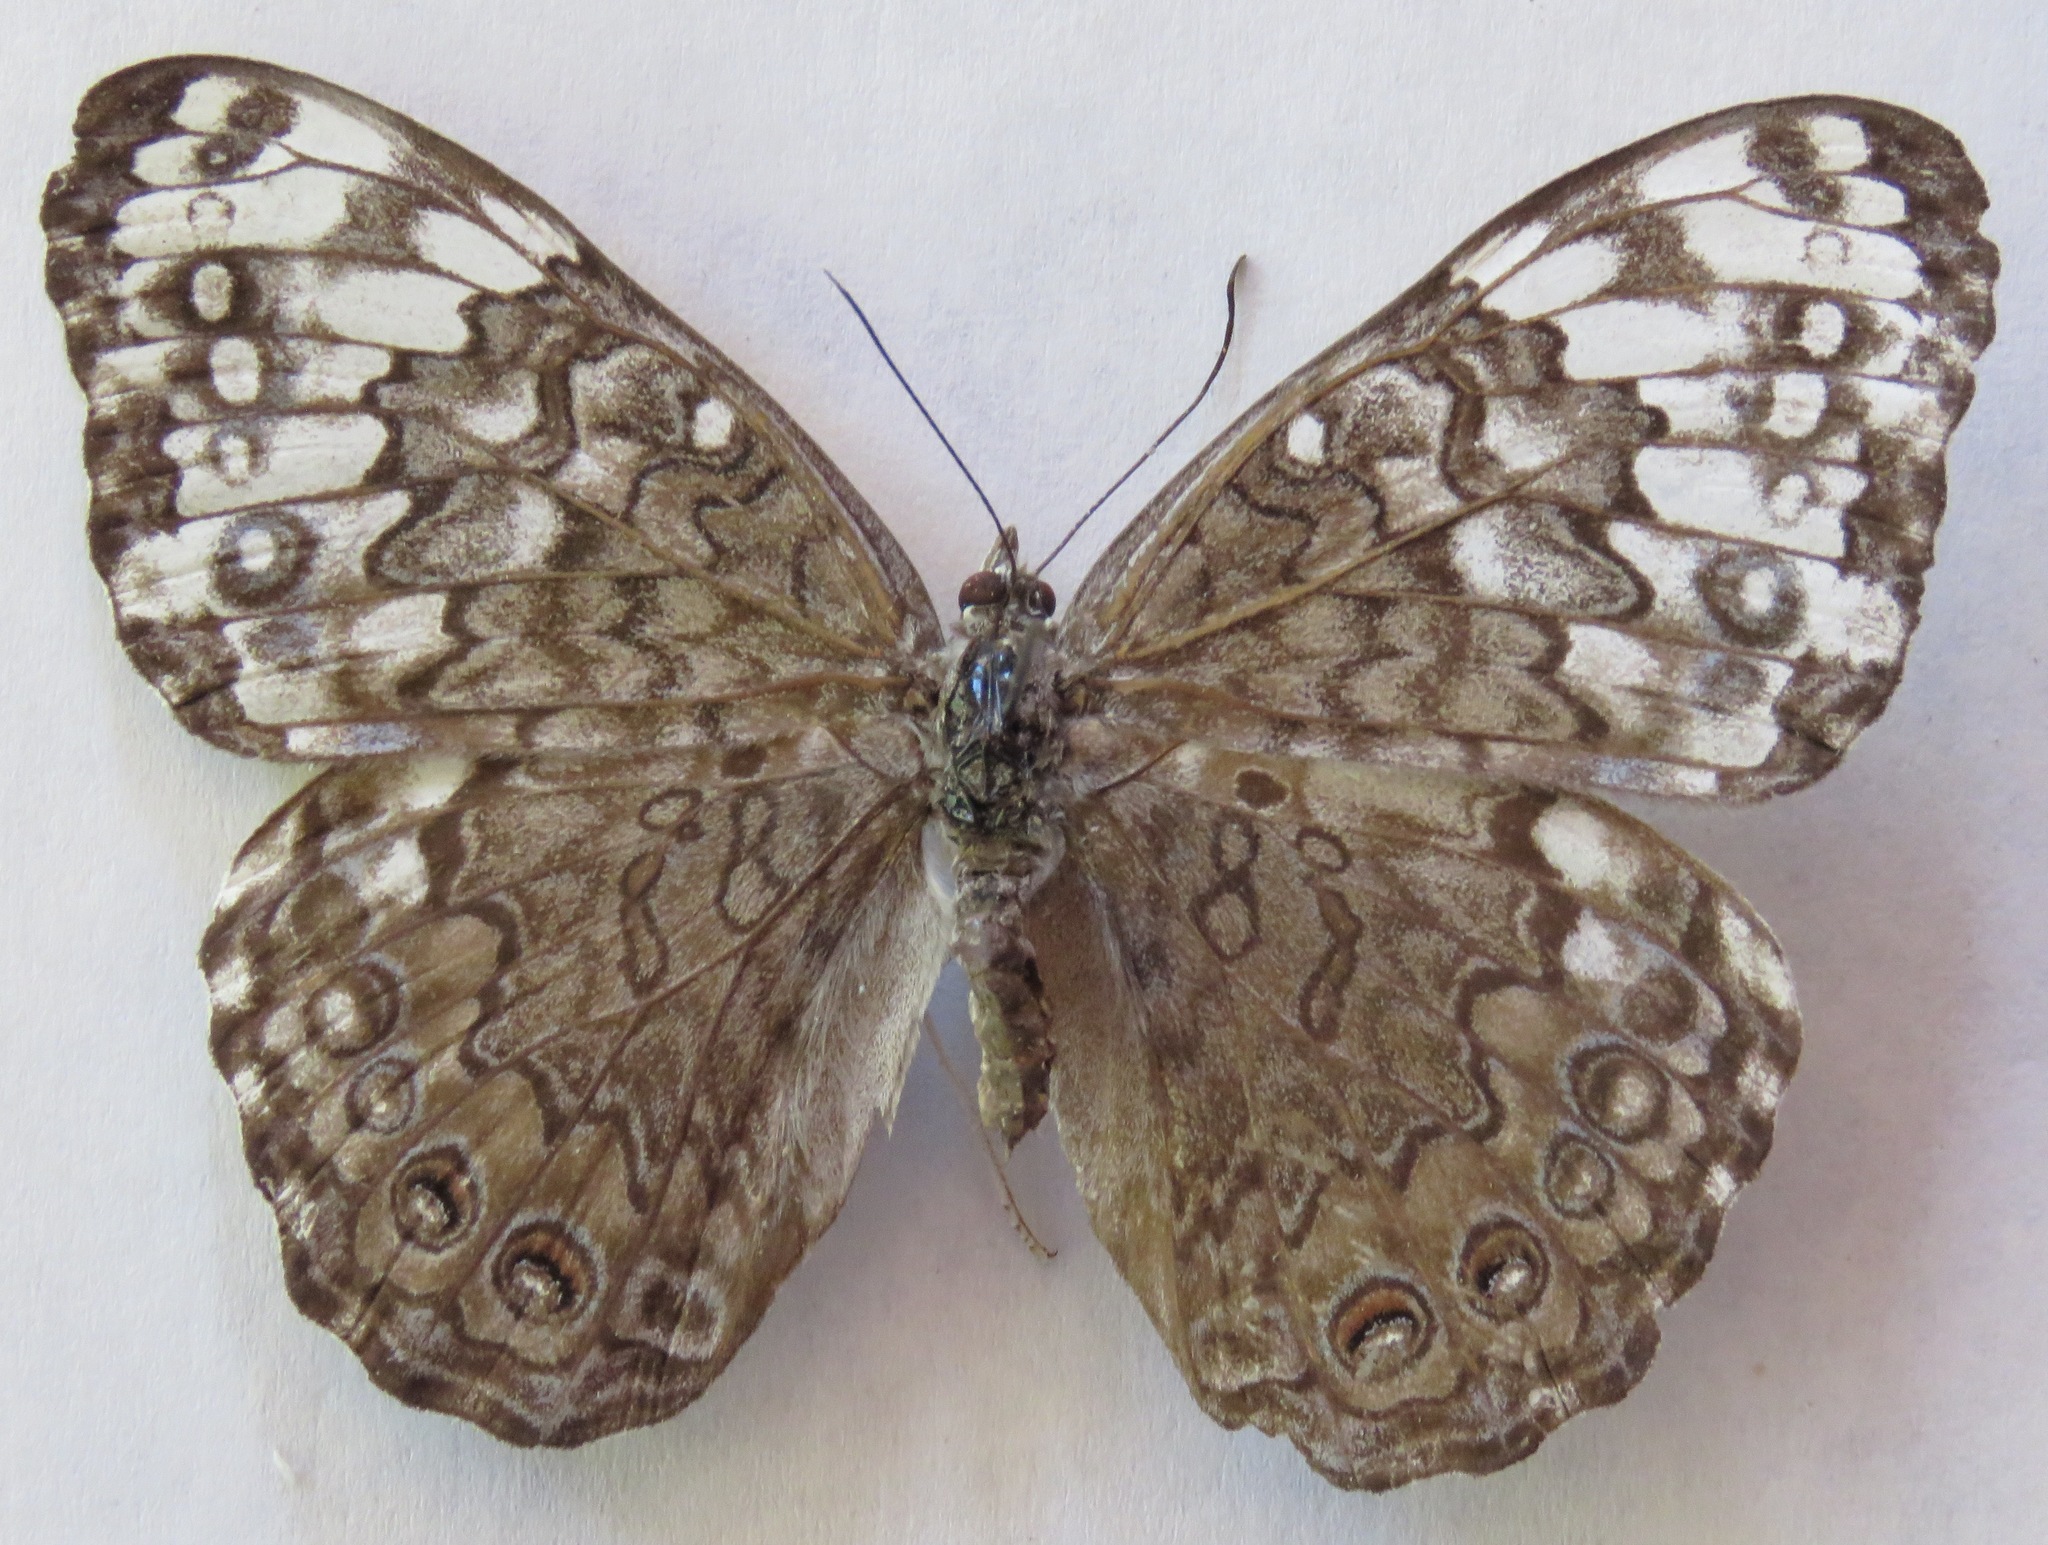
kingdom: Animalia
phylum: Arthropoda
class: Insecta
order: Lepidoptera
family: Nymphalidae
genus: Hamadryas
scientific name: Hamadryas glauconome
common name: Glaucous cracker
